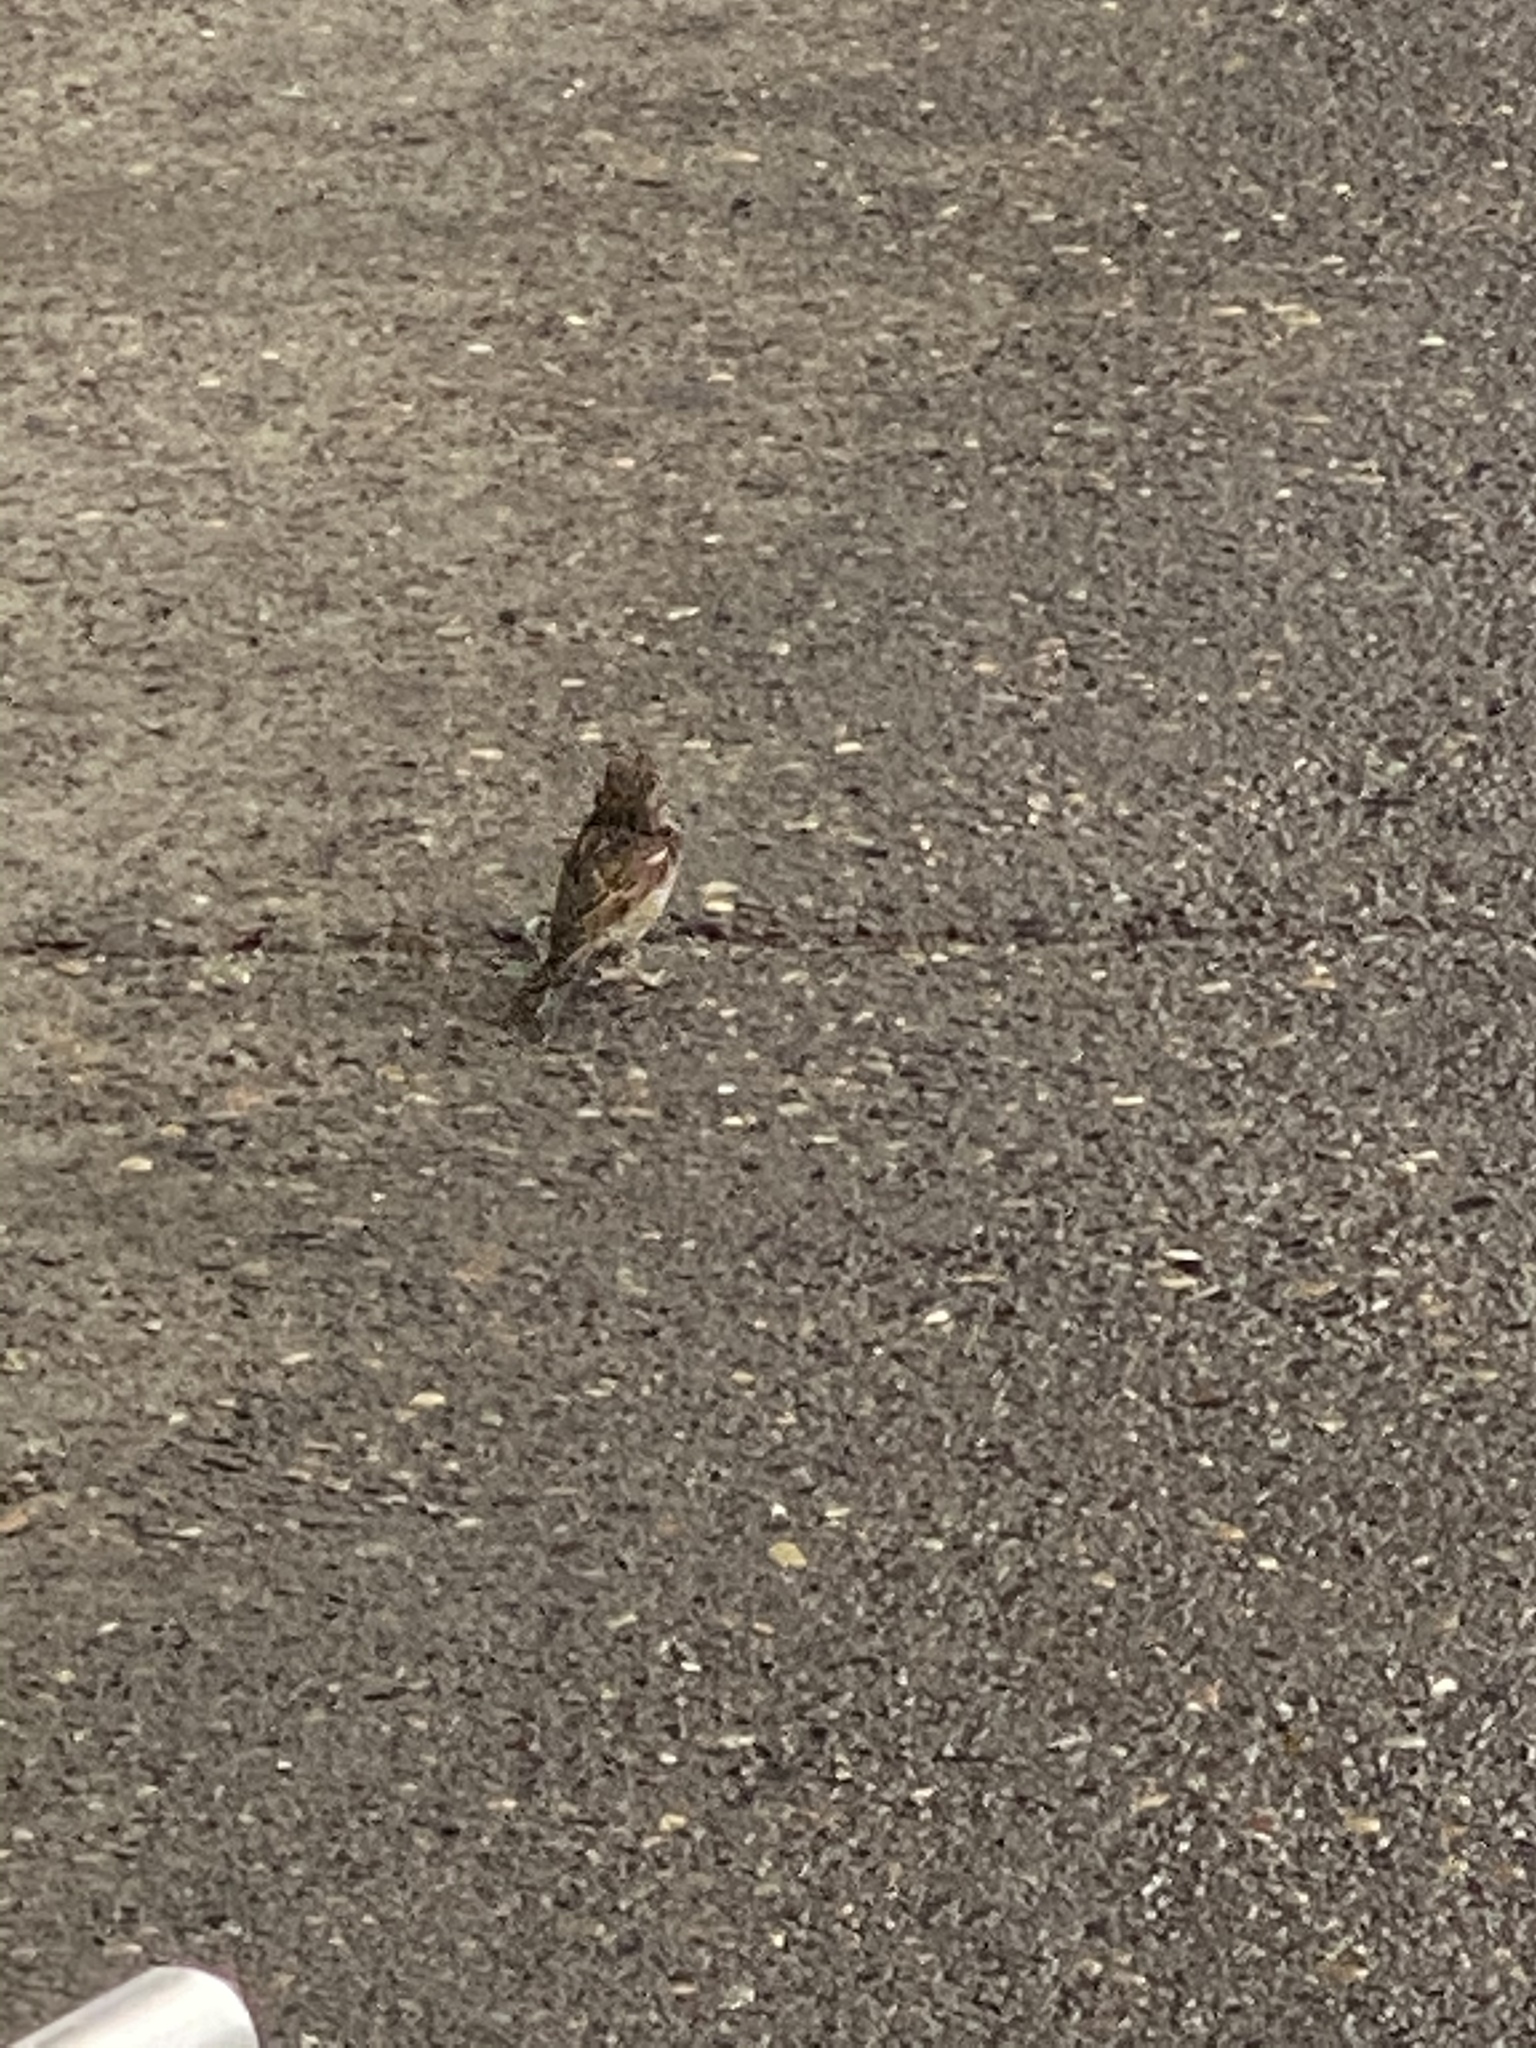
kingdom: Animalia
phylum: Chordata
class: Aves
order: Passeriformes
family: Passeridae
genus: Passer
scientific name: Passer domesticus
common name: House sparrow
